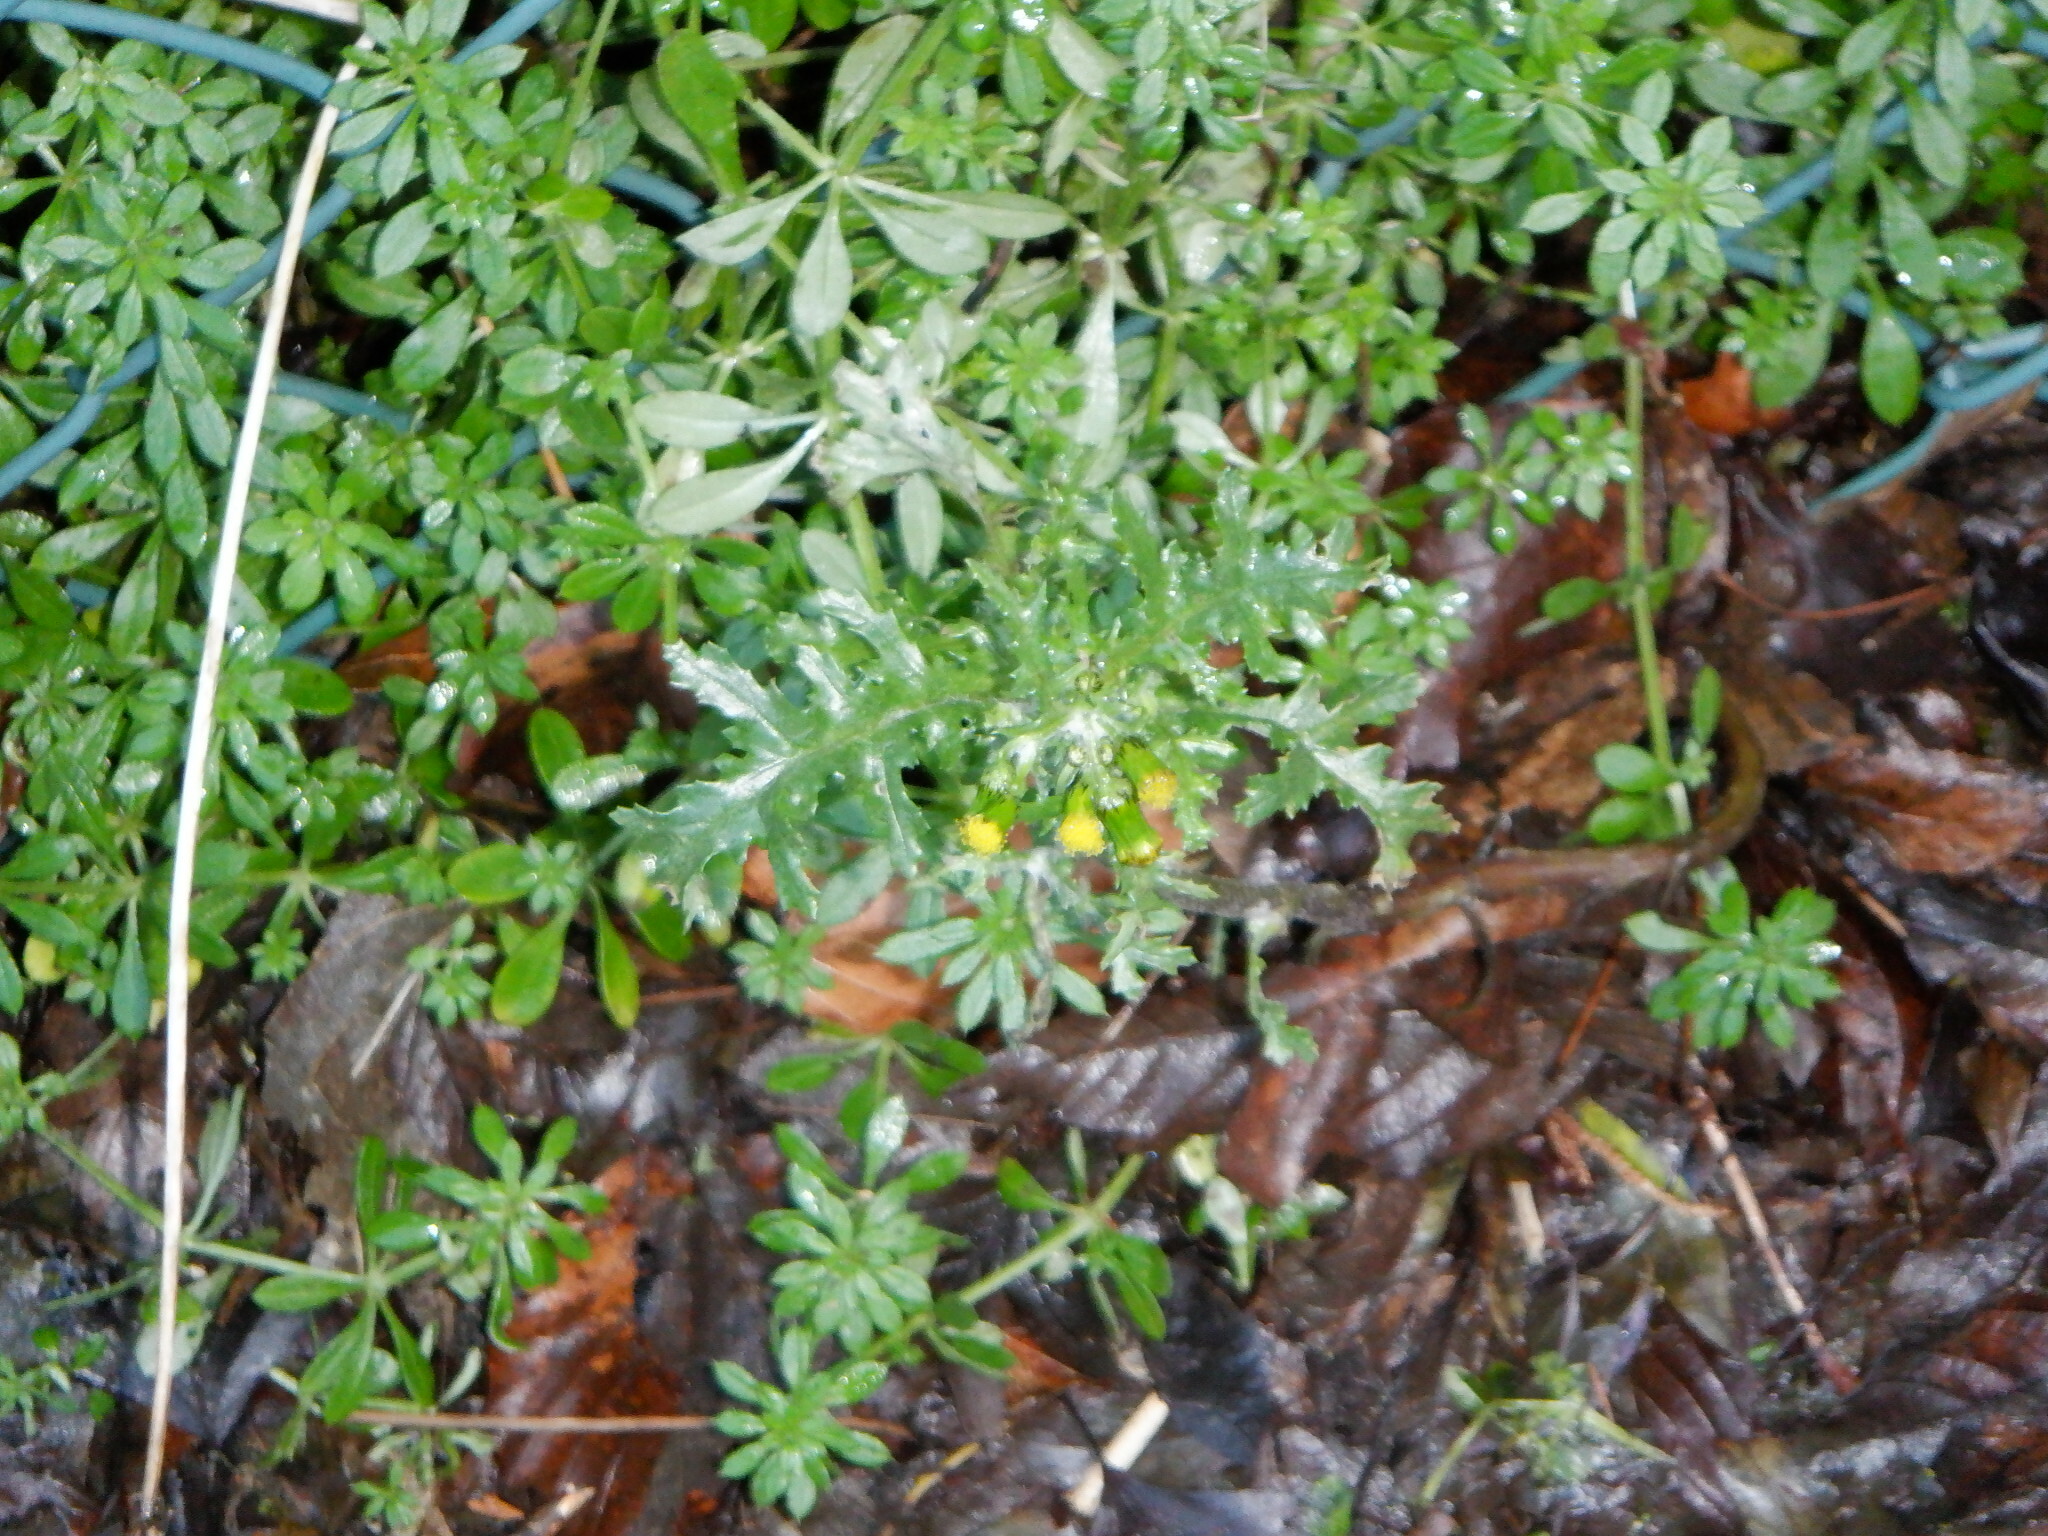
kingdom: Plantae
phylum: Tracheophyta
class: Magnoliopsida
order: Asterales
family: Asteraceae
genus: Senecio
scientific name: Senecio vulgaris
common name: Old-man-in-the-spring
